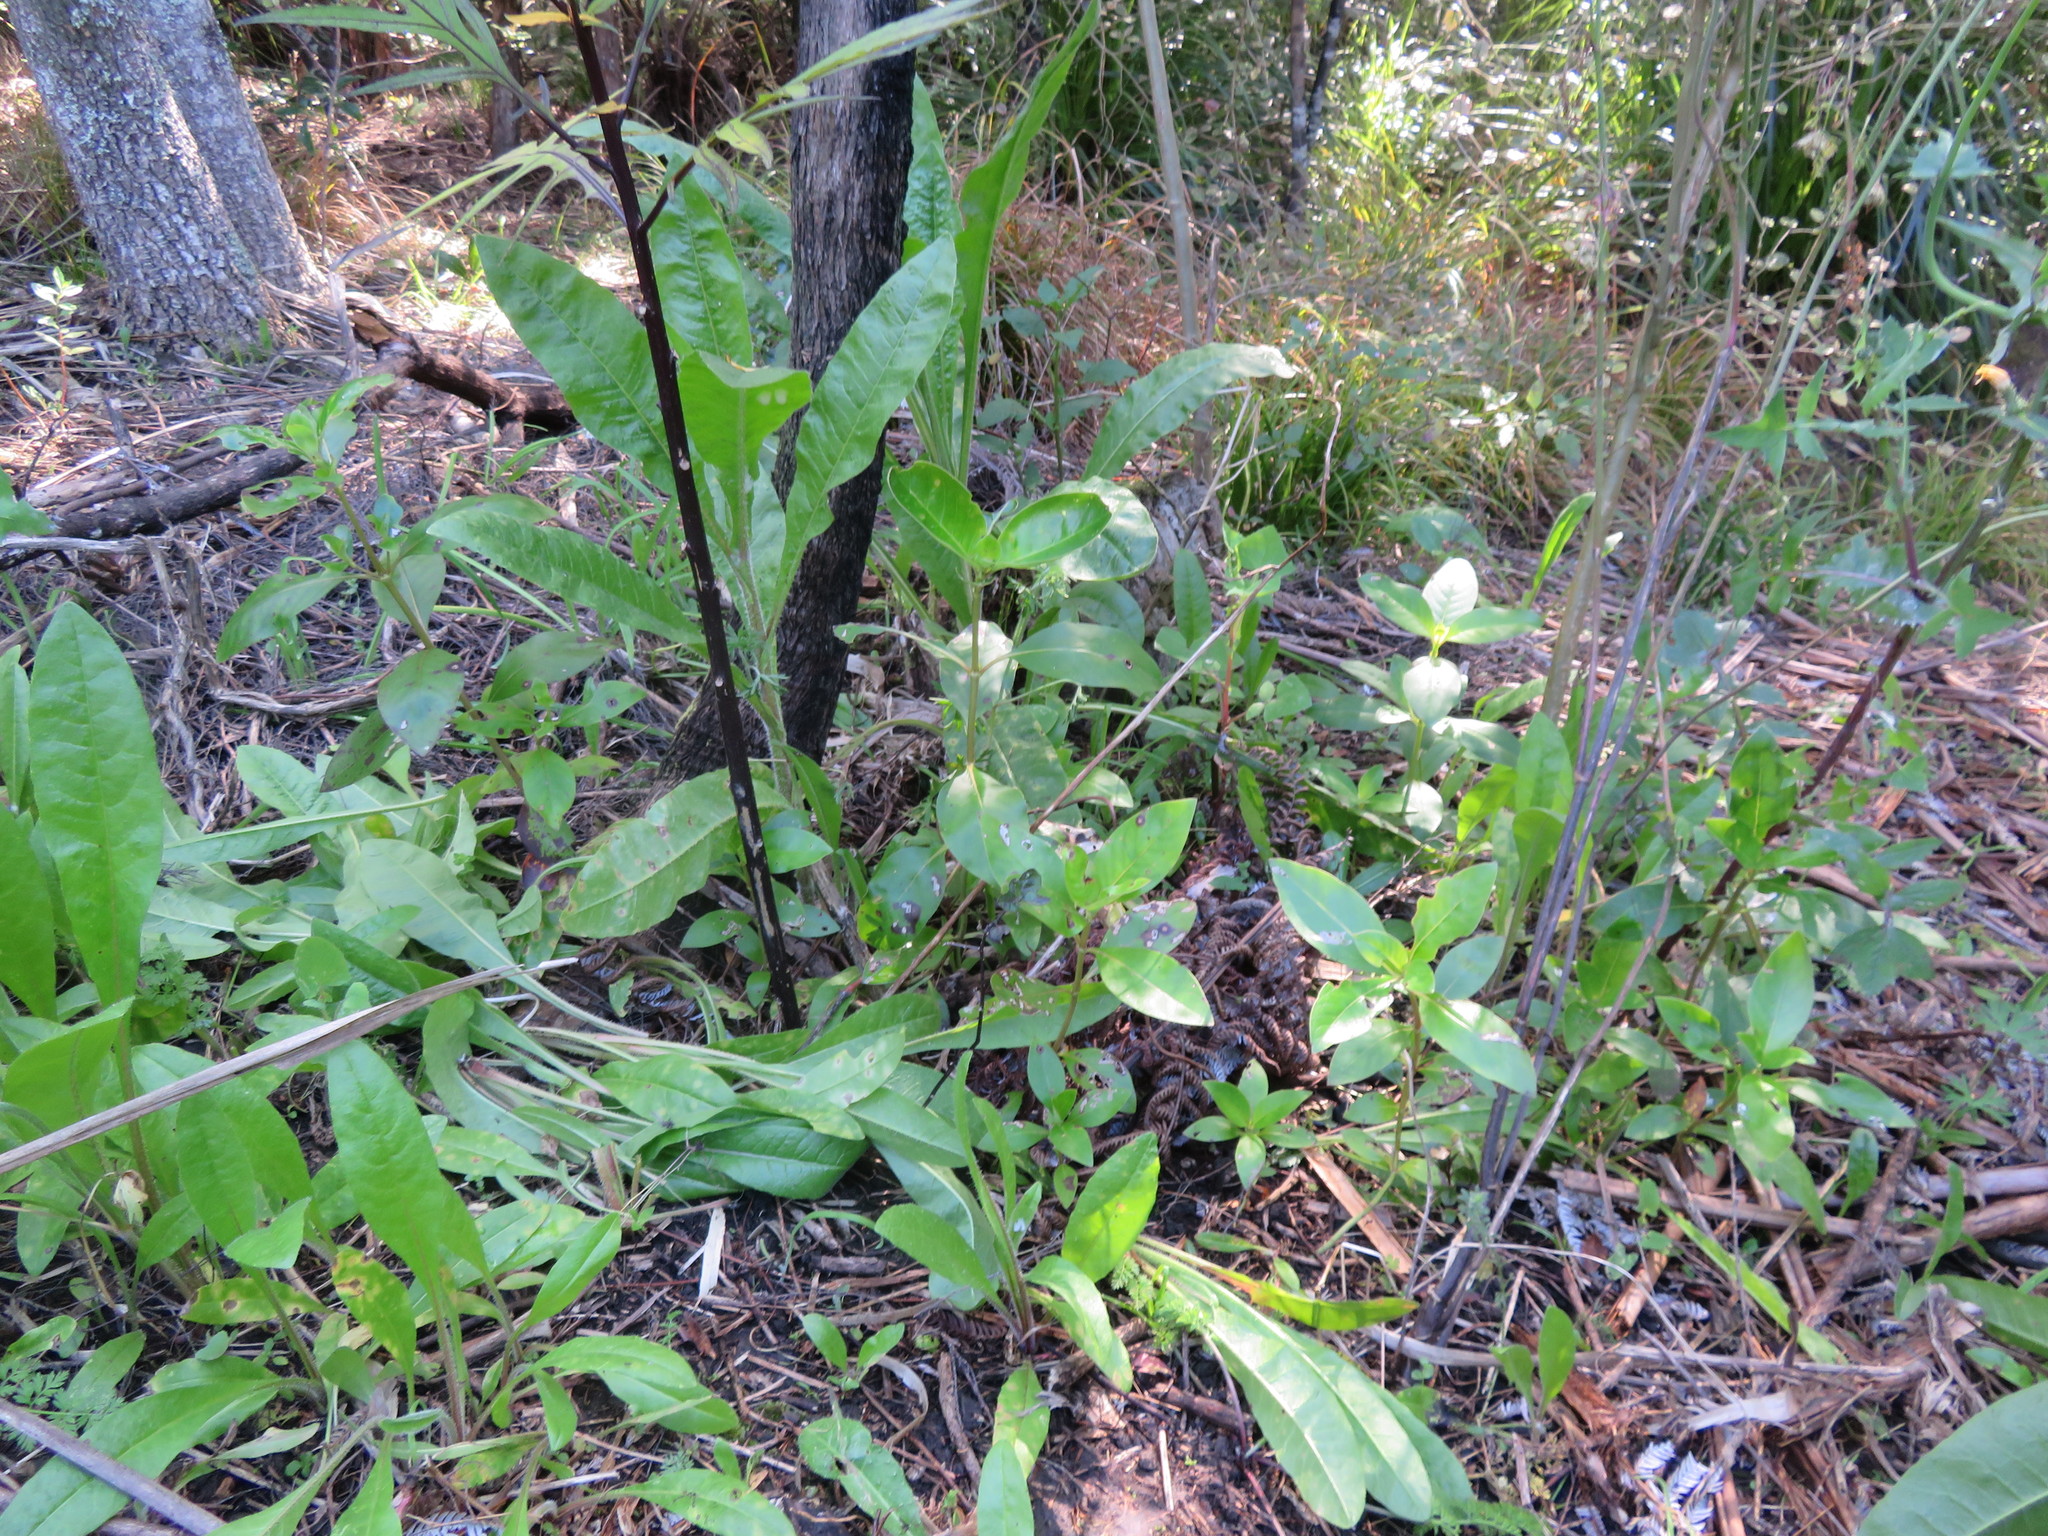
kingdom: Plantae
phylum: Tracheophyta
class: Magnoliopsida
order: Gentianales
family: Rubiaceae
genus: Coprosma
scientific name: Coprosma robusta
